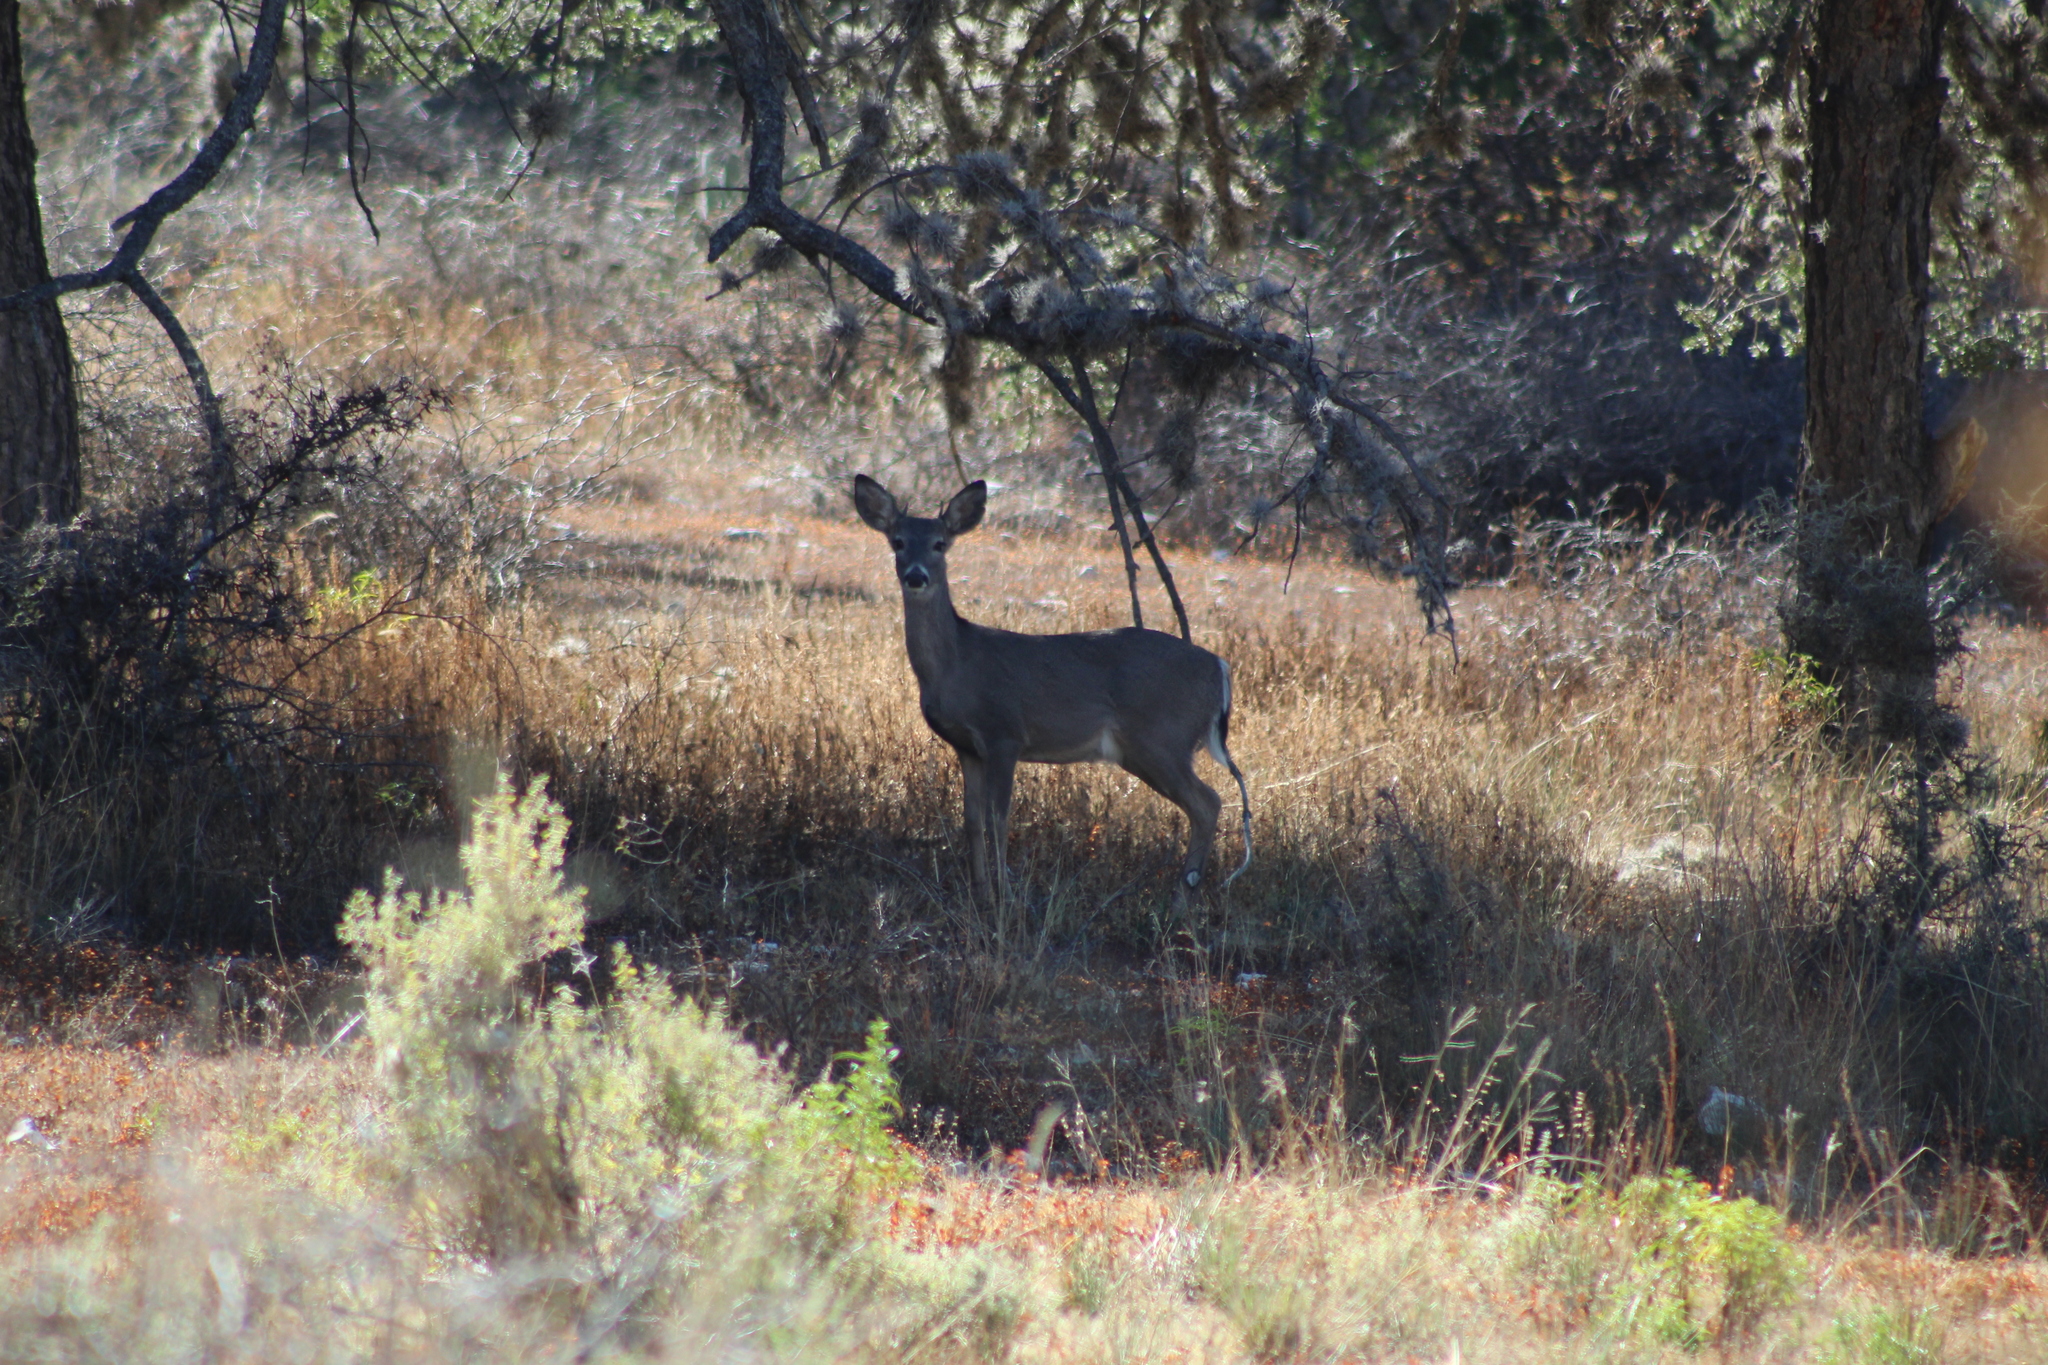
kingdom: Animalia
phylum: Chordata
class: Mammalia
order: Artiodactyla
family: Cervidae
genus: Odocoileus
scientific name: Odocoileus virginianus
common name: White-tailed deer
